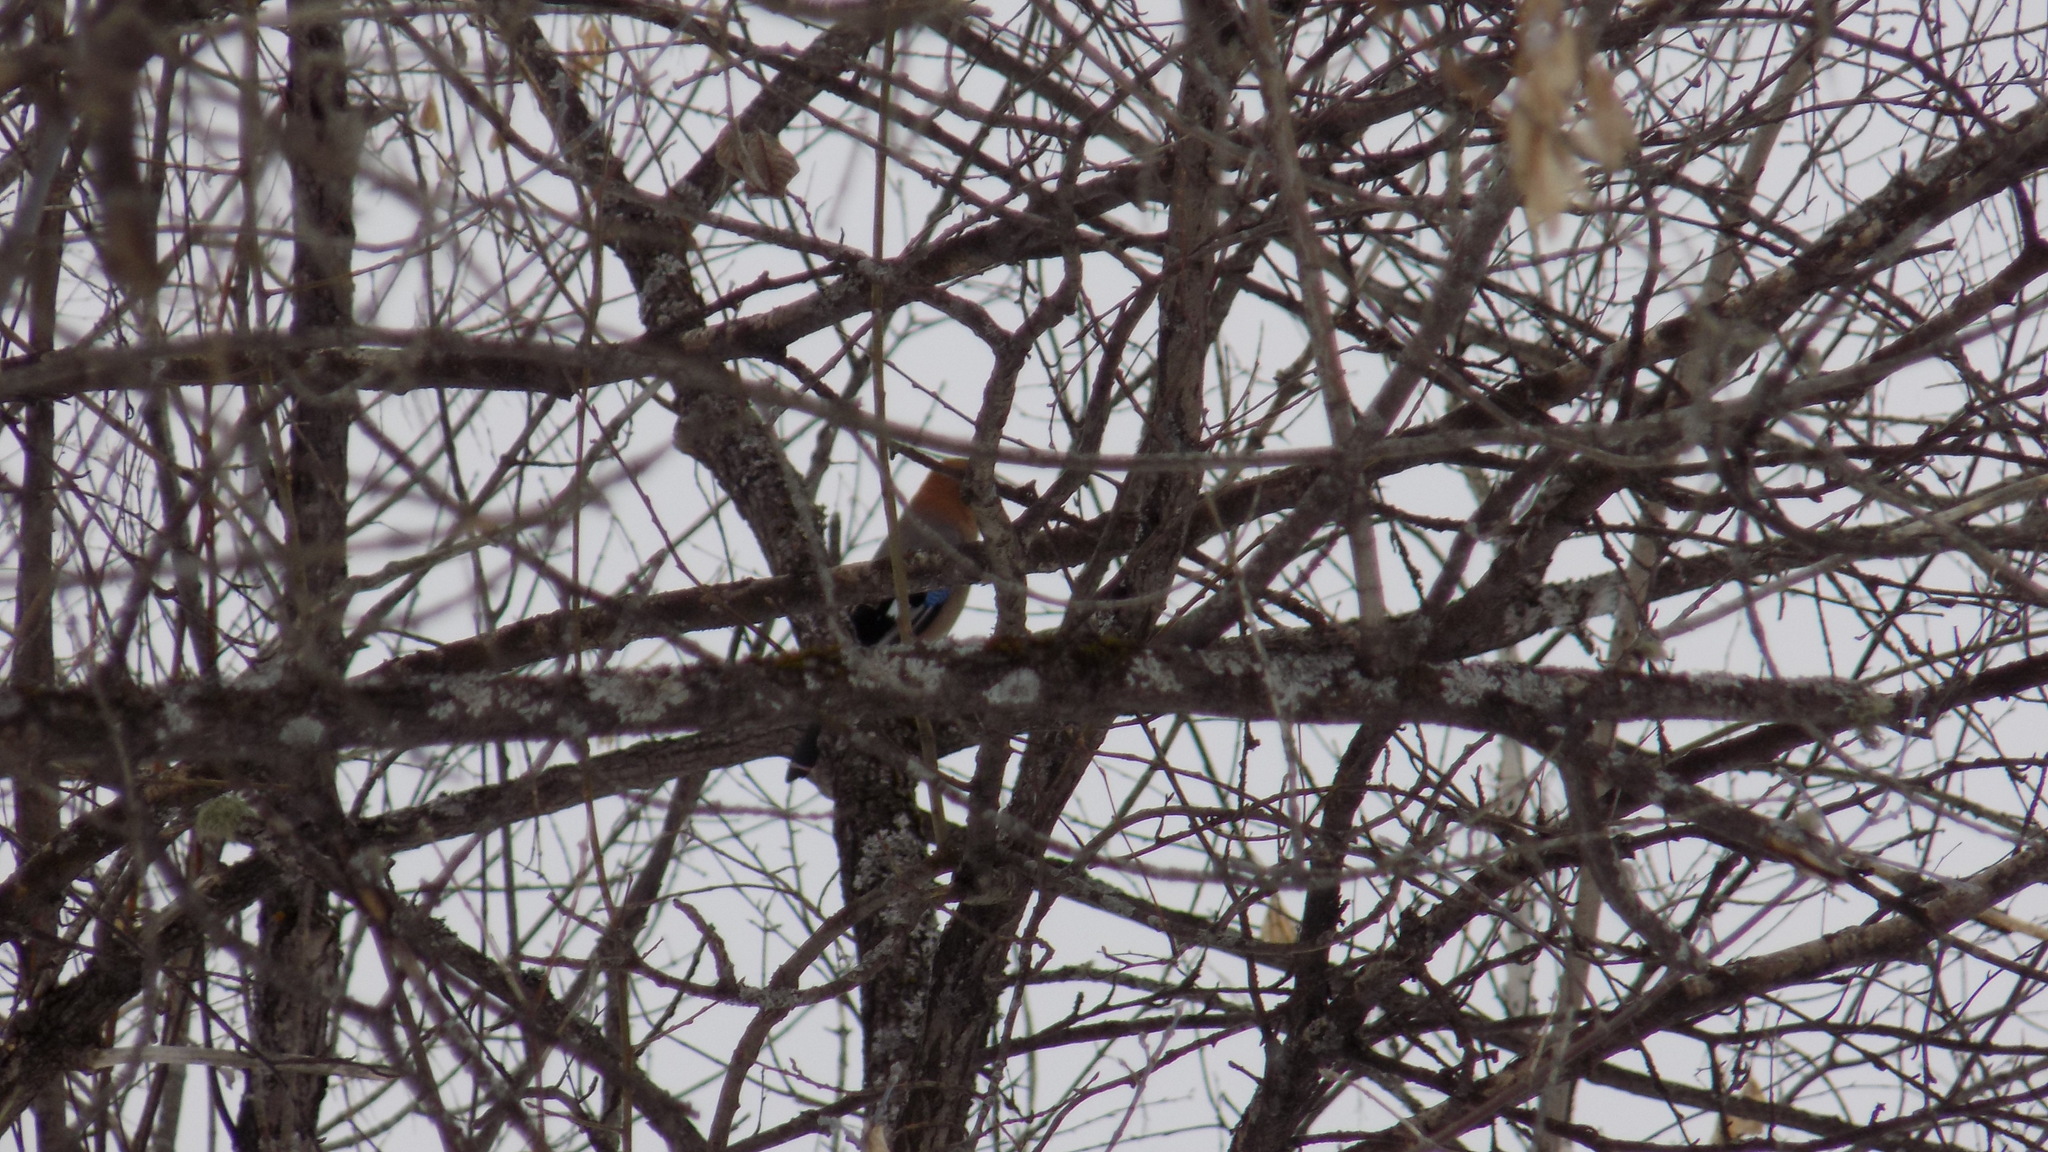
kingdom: Animalia
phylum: Chordata
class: Aves
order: Passeriformes
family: Corvidae
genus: Garrulus
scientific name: Garrulus glandarius
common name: Eurasian jay
